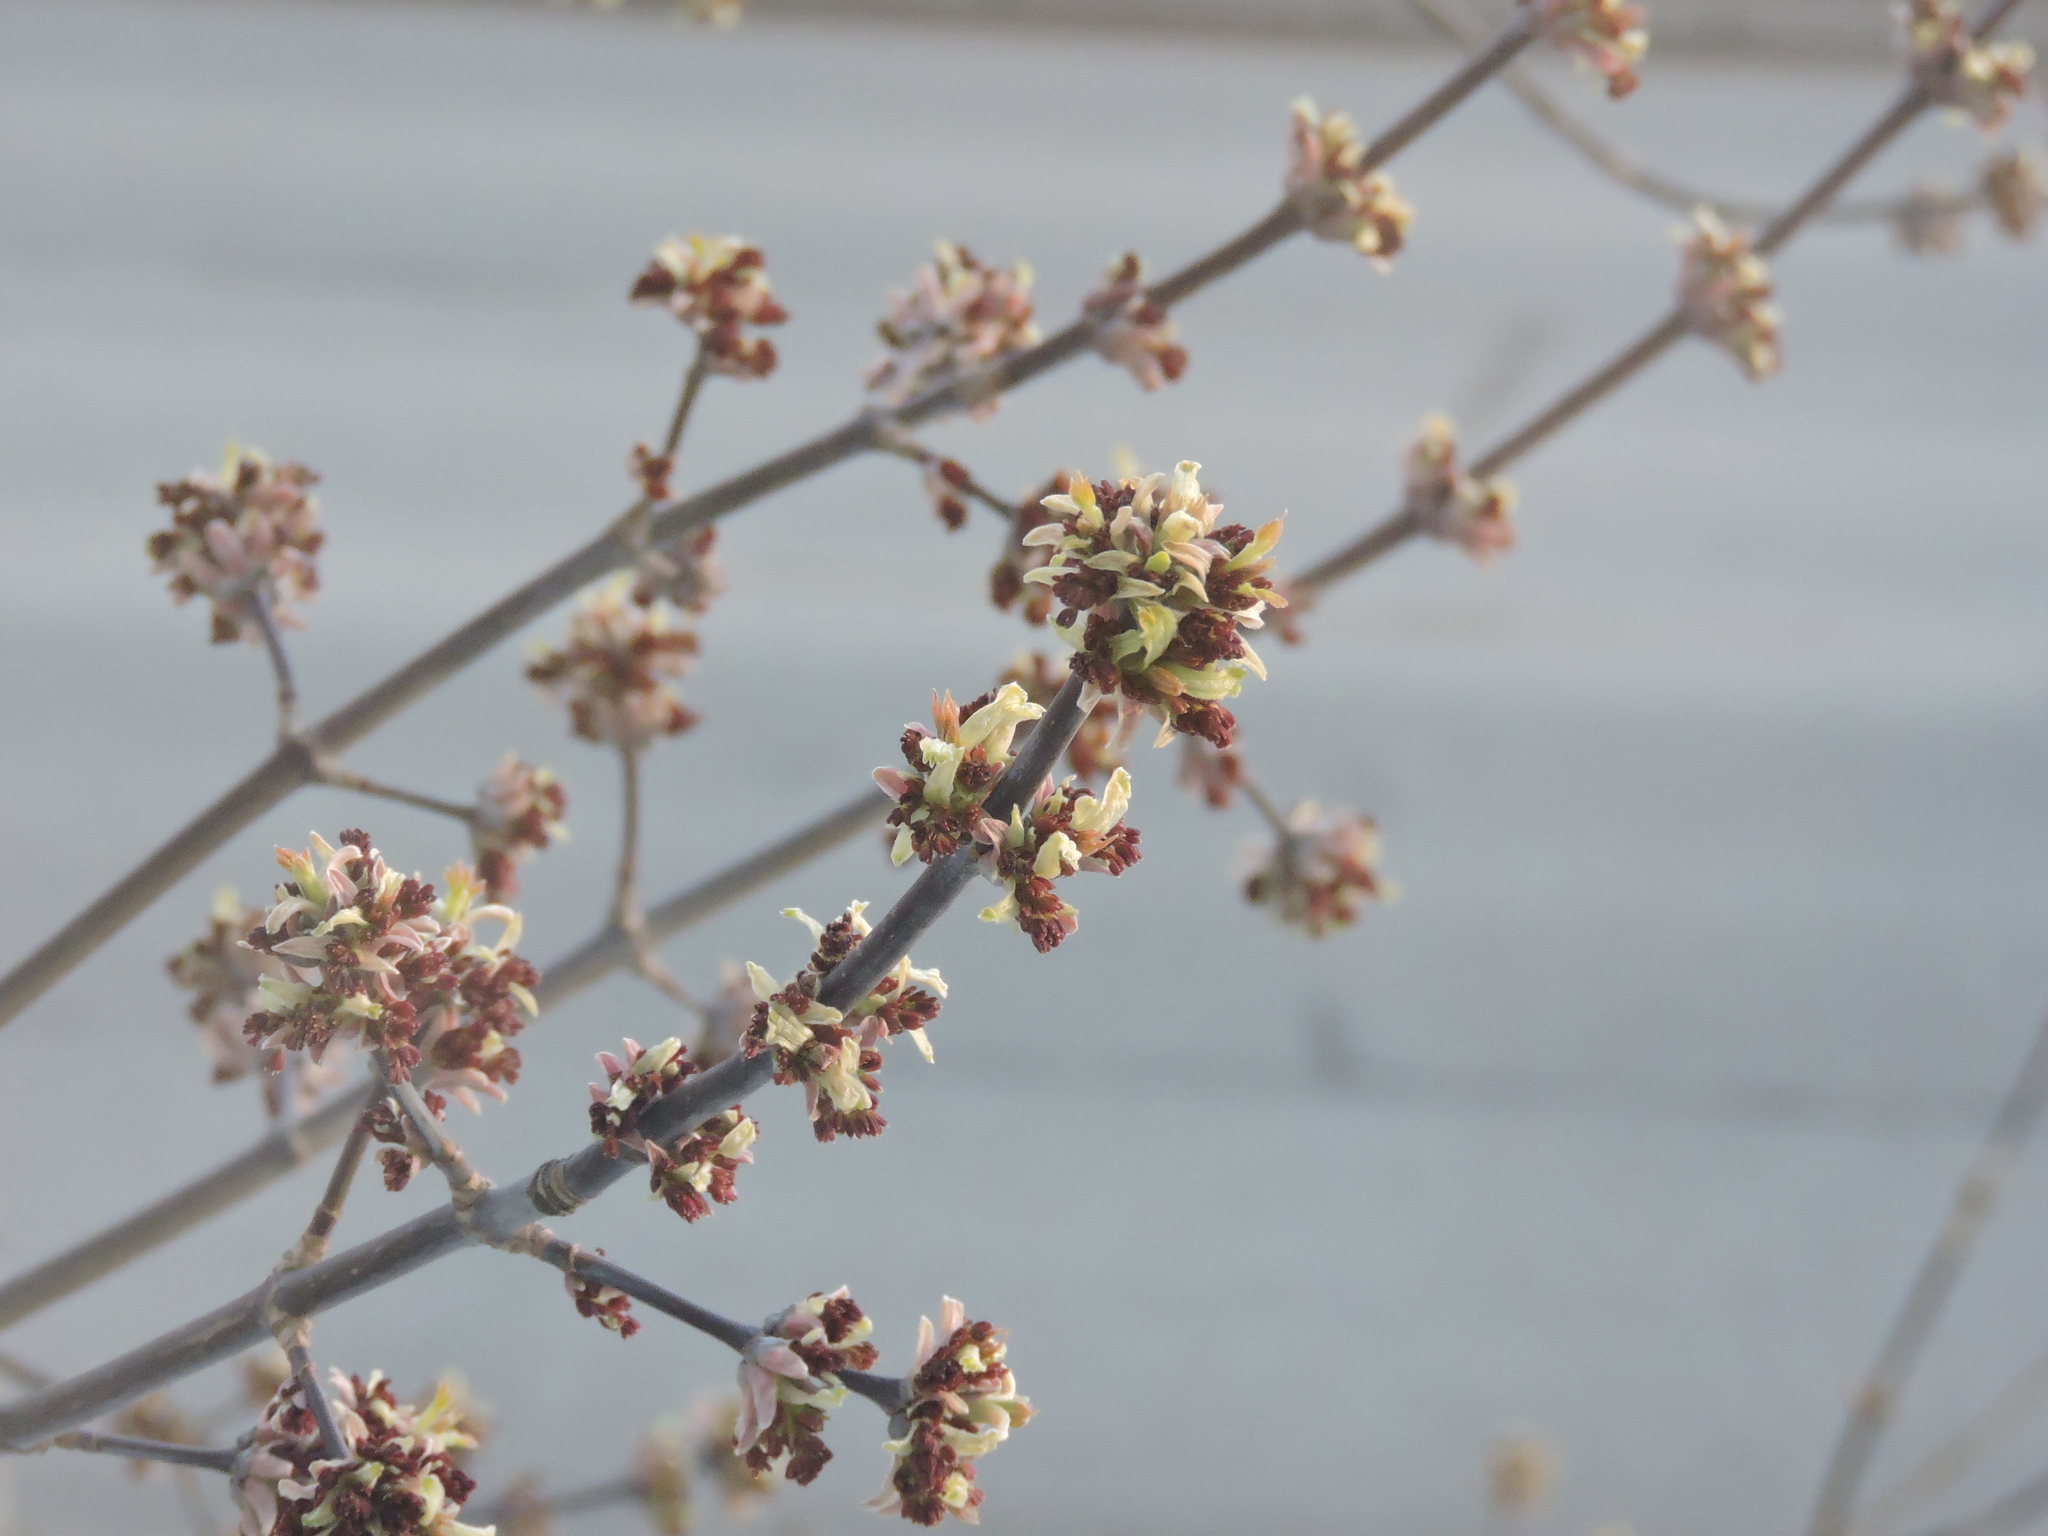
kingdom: Plantae
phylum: Tracheophyta
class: Magnoliopsida
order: Sapindales
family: Sapindaceae
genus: Acer
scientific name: Acer negundo
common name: Ashleaf maple
